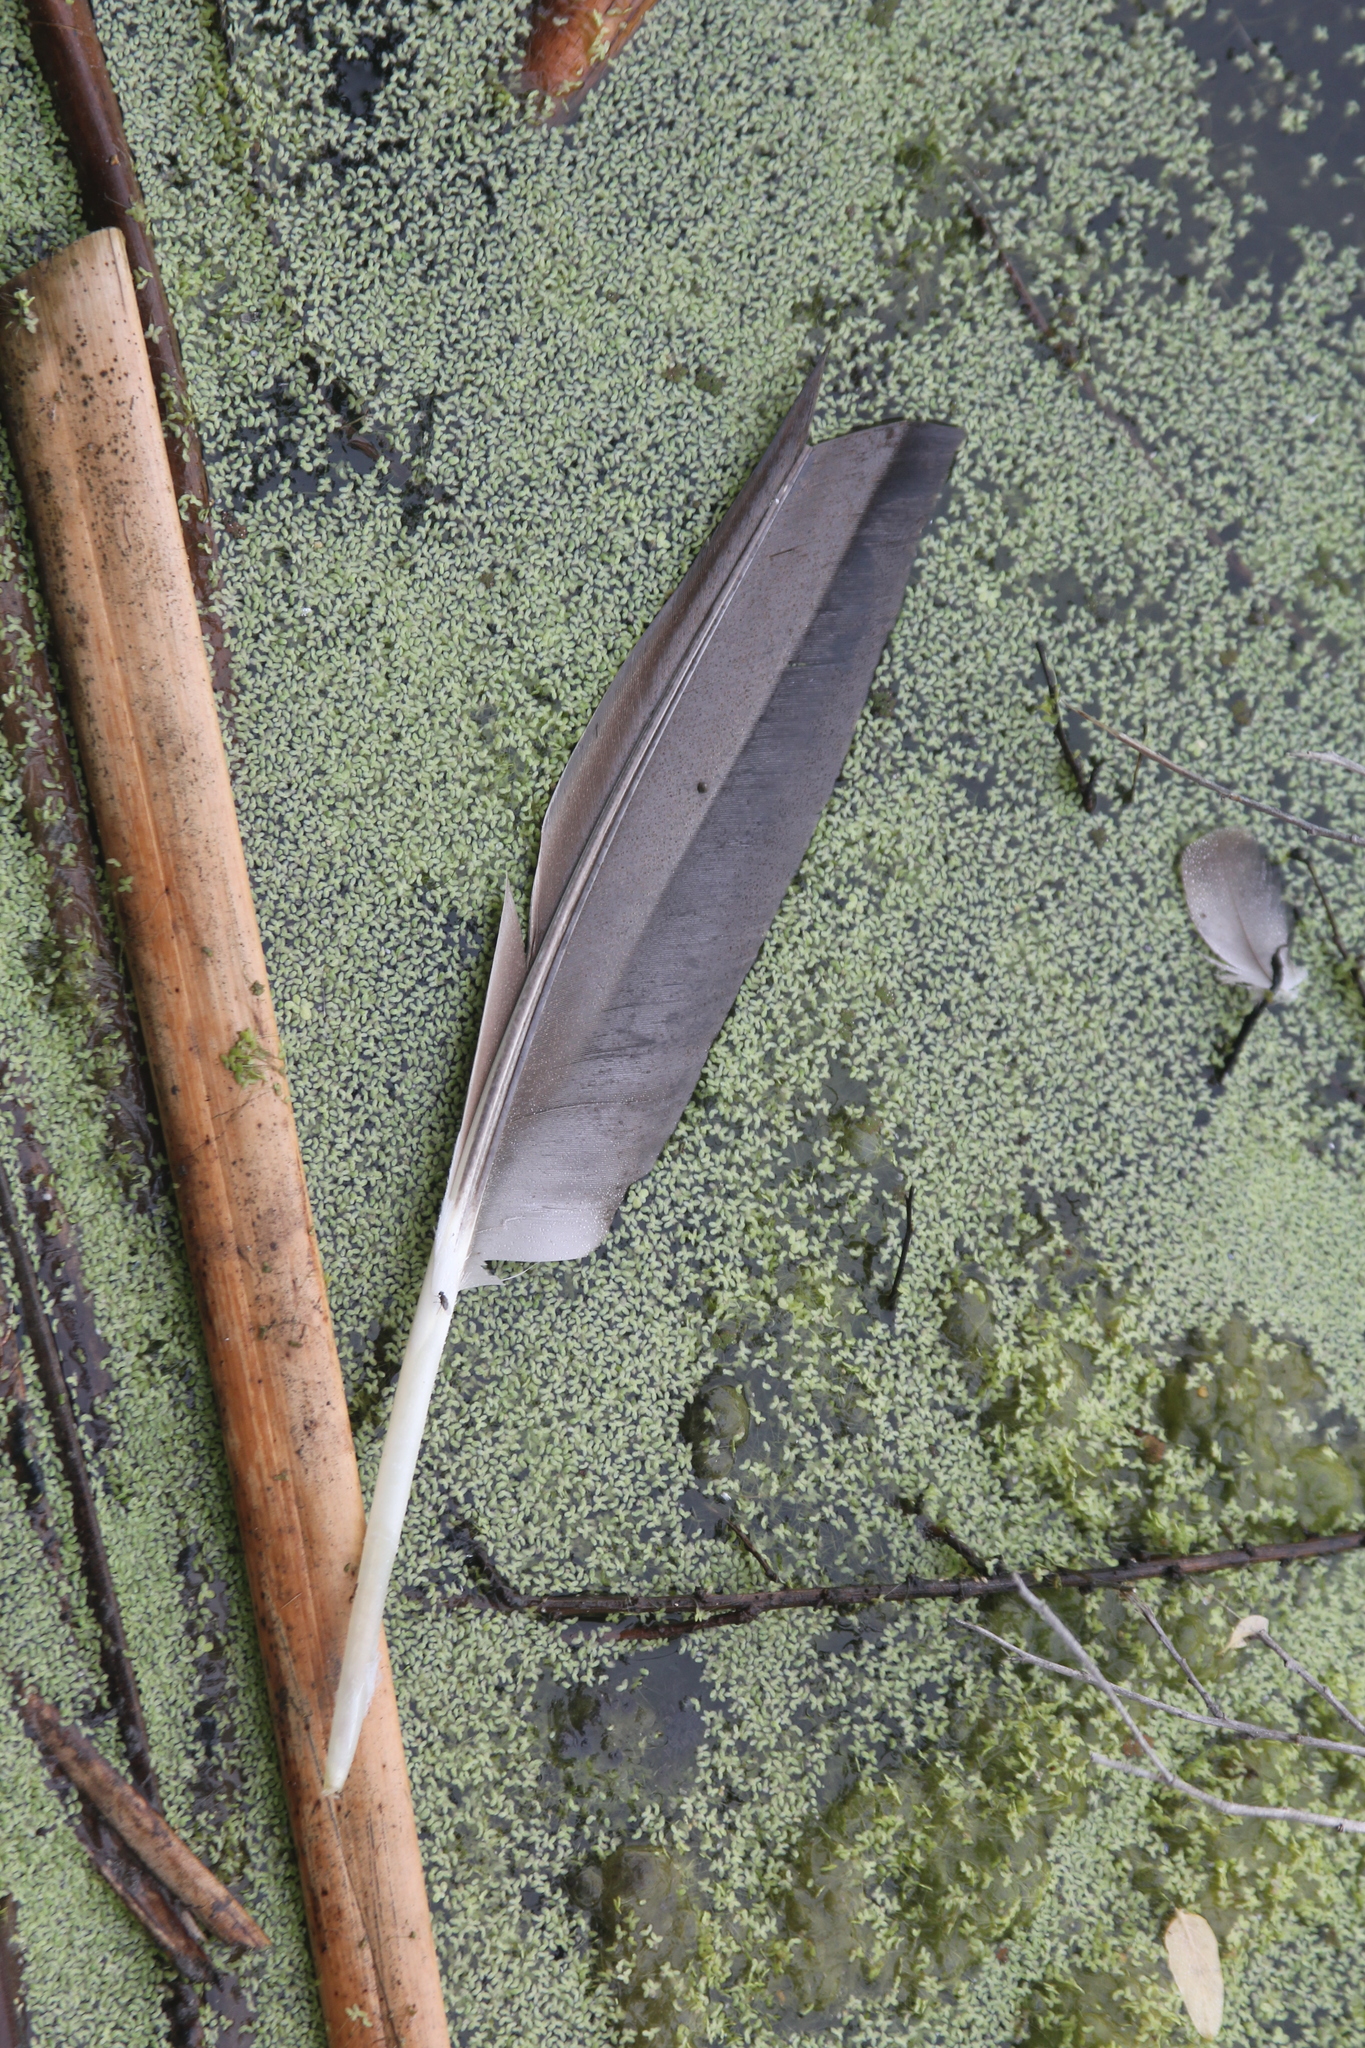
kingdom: Animalia
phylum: Chordata
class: Aves
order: Anseriformes
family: Anatidae
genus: Branta
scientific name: Branta canadensis
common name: Canada goose
